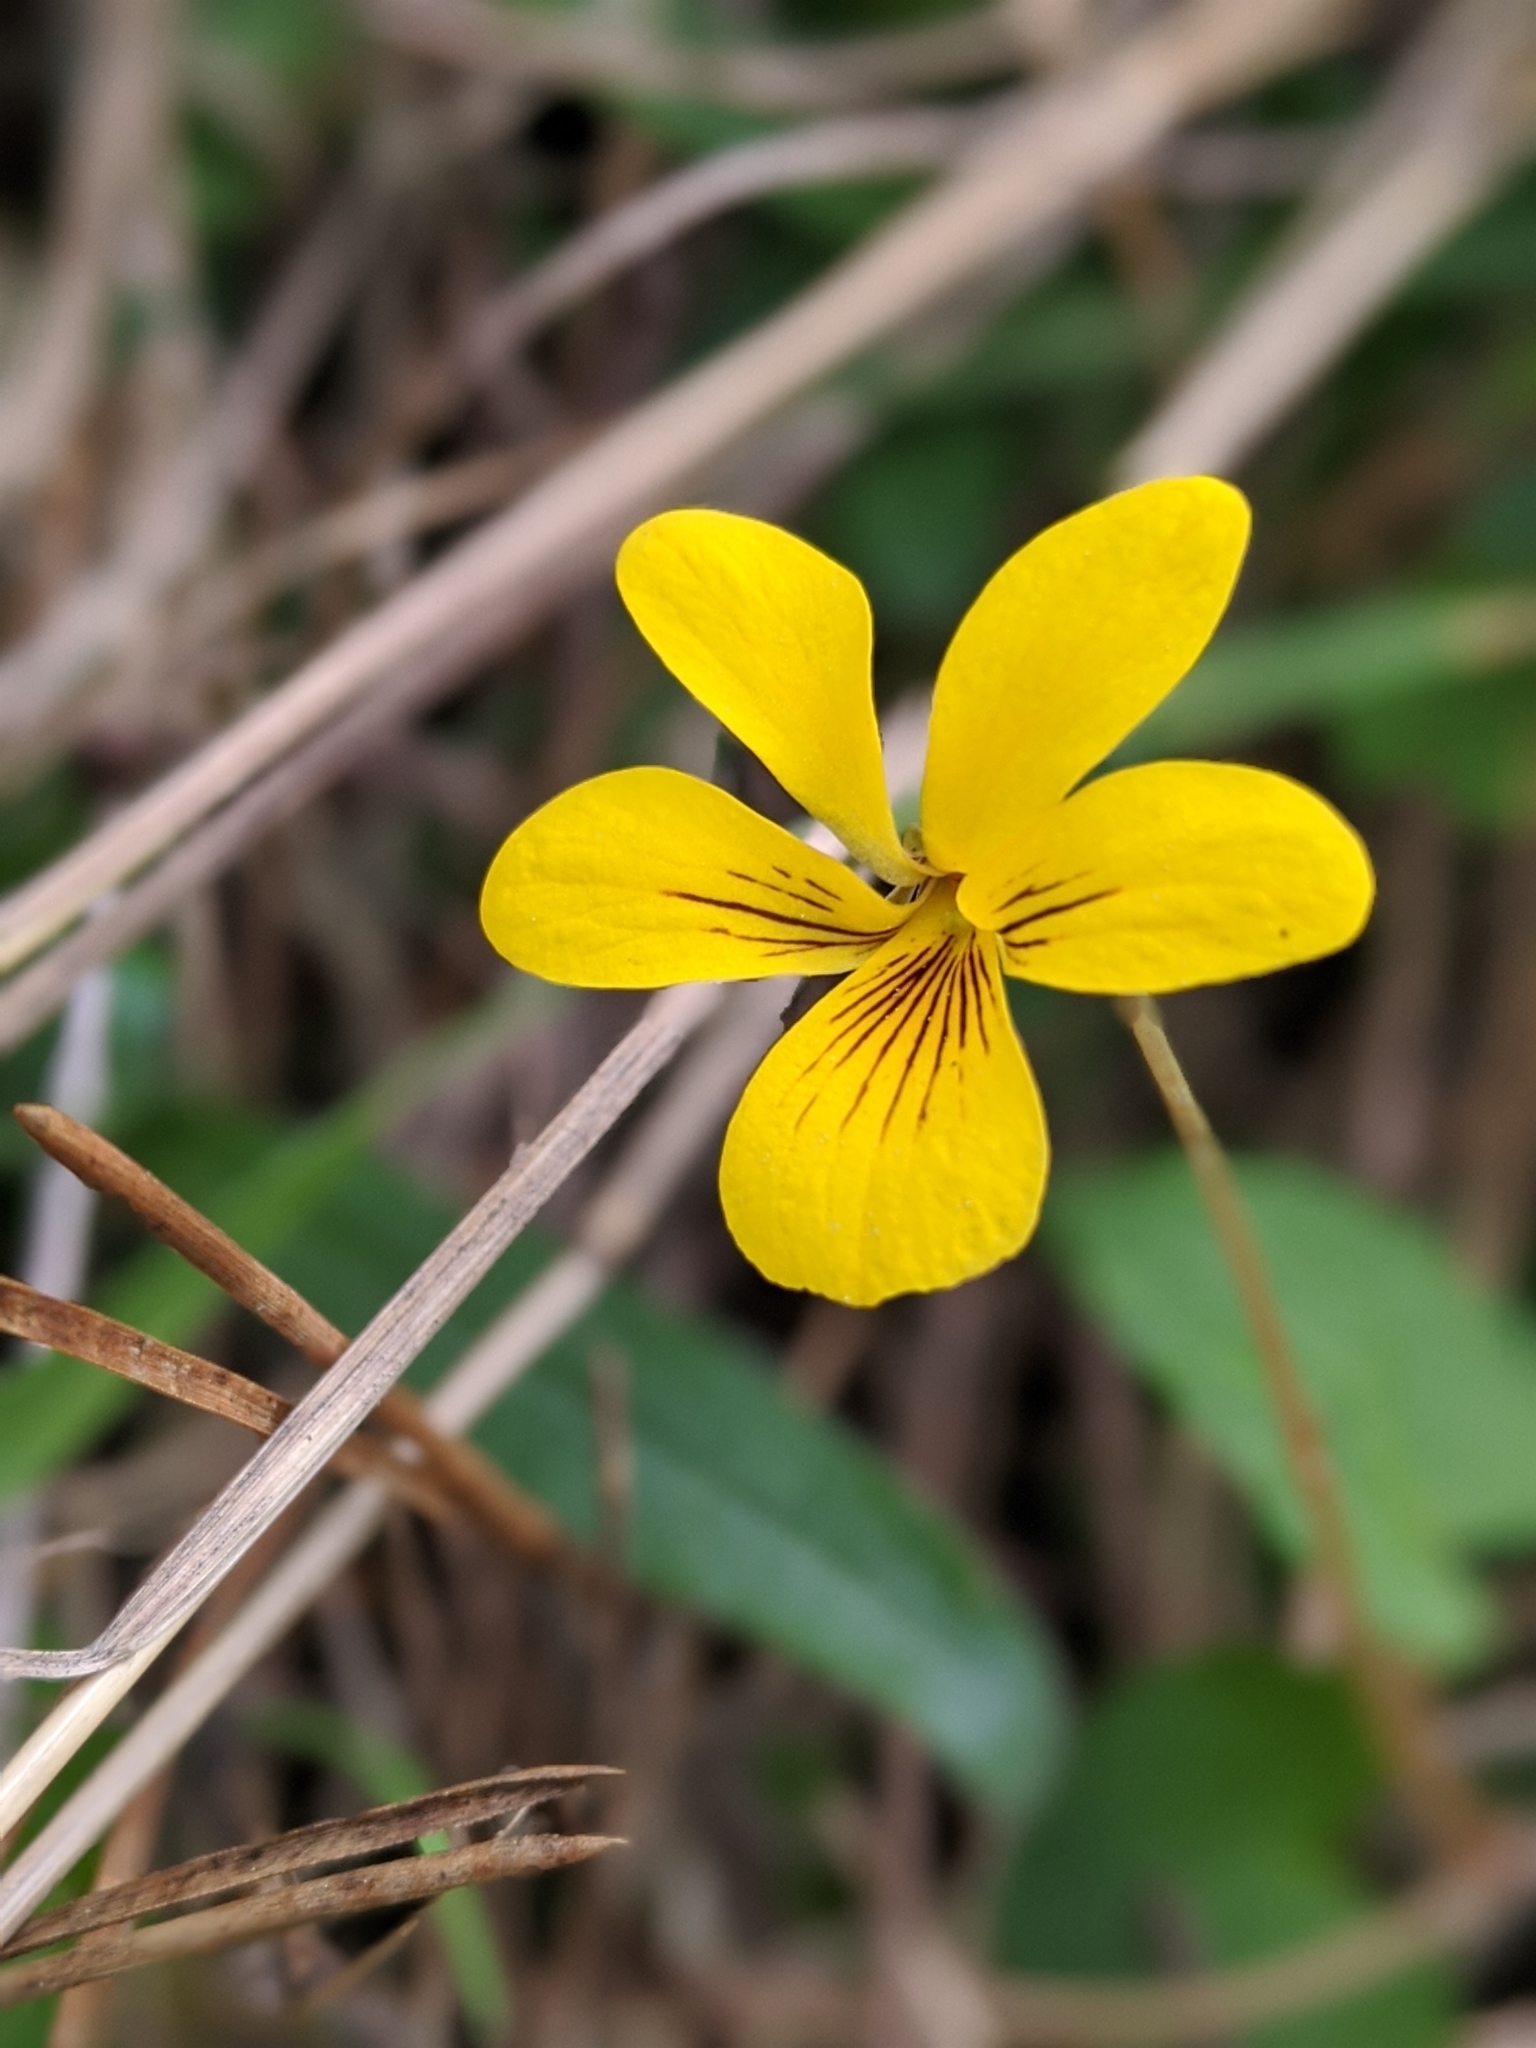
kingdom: Plantae
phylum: Tracheophyta
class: Magnoliopsida
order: Malpighiales
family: Violaceae
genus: Viola
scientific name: Viola sempervirens
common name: Evergreen violet
